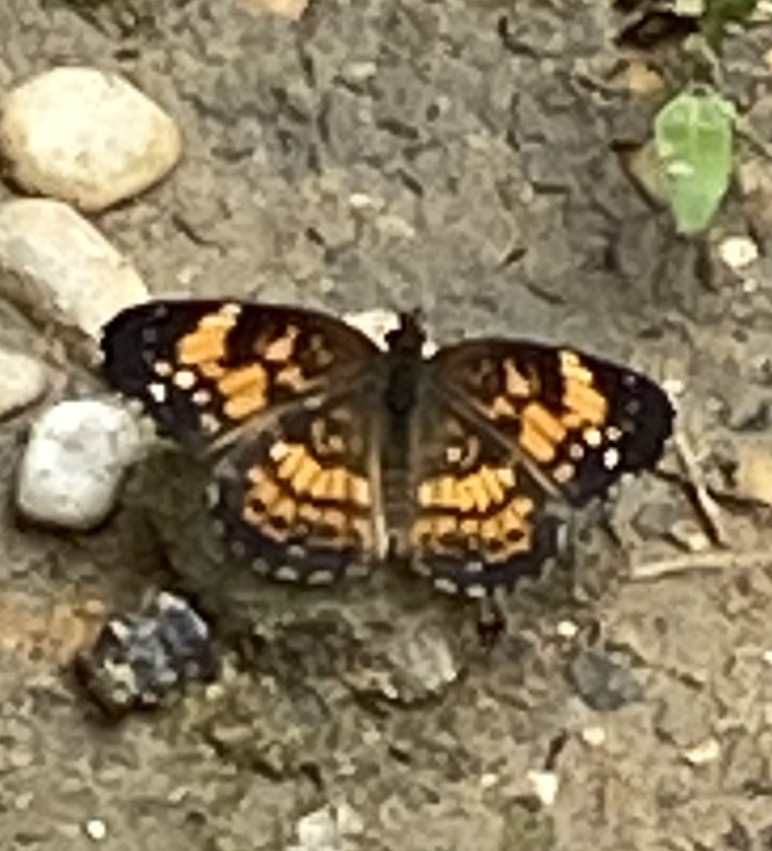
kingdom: Animalia
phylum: Arthropoda
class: Insecta
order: Lepidoptera
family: Nymphalidae
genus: Chlosyne
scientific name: Chlosyne nycteis
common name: Silvery checkerspot
